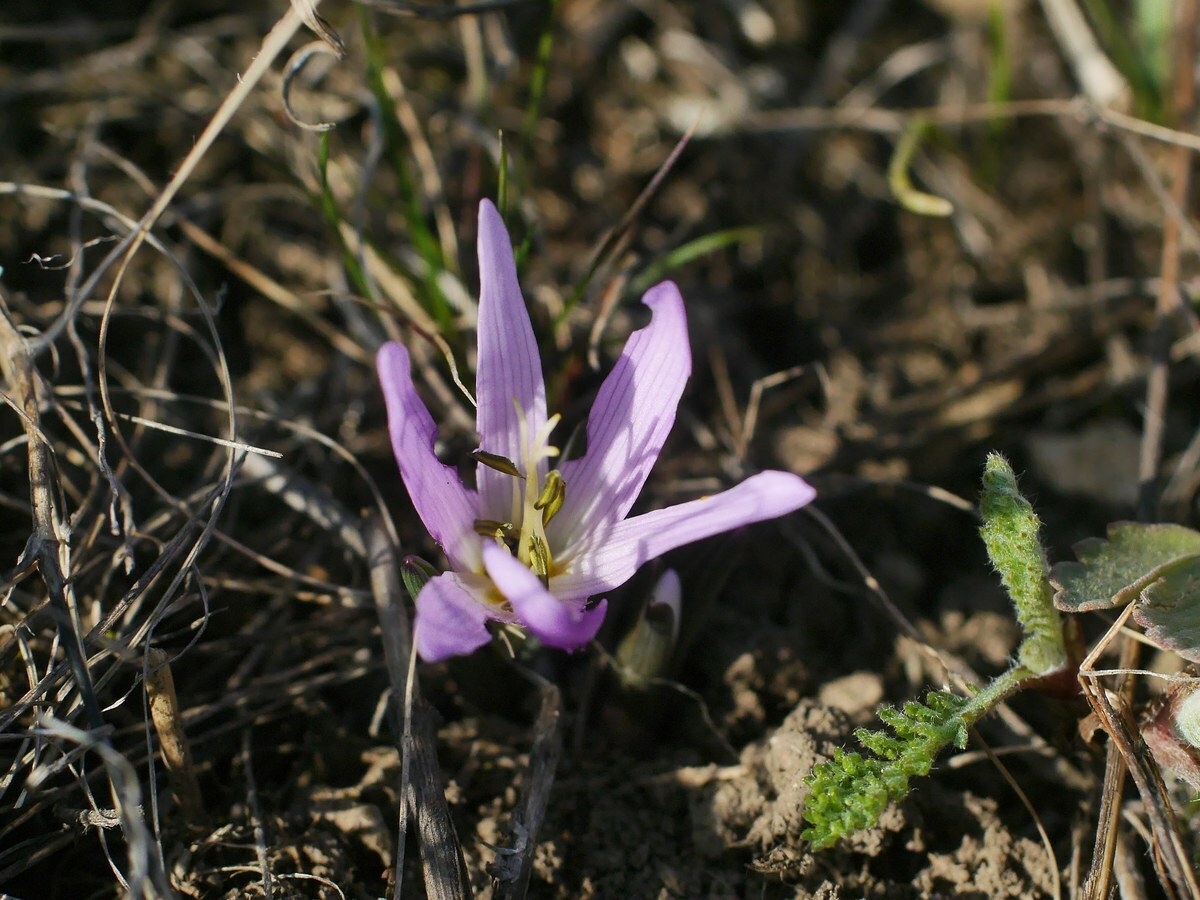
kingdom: Plantae
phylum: Tracheophyta
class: Liliopsida
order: Liliales
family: Colchicaceae
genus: Colchicum
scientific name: Colchicum bulbocodium
